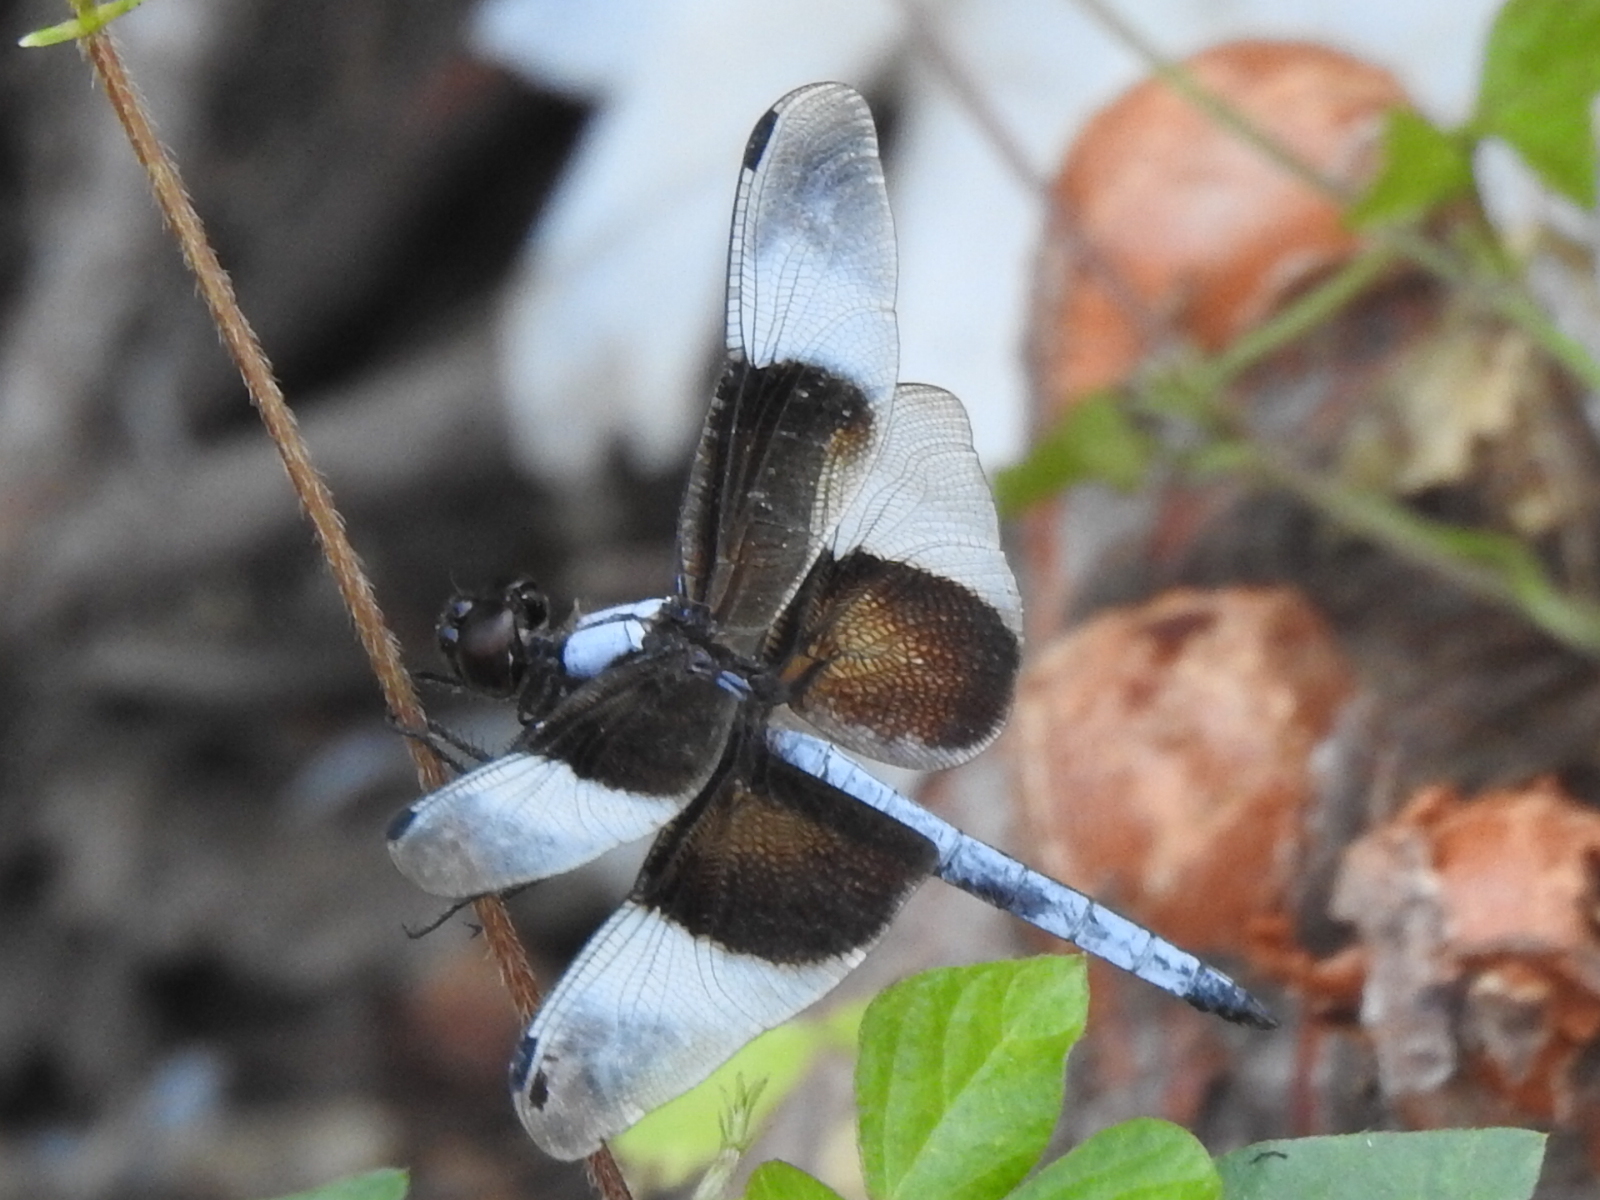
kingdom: Animalia
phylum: Arthropoda
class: Insecta
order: Odonata
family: Libellulidae
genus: Libellula
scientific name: Libellula luctuosa
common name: Widow skimmer
